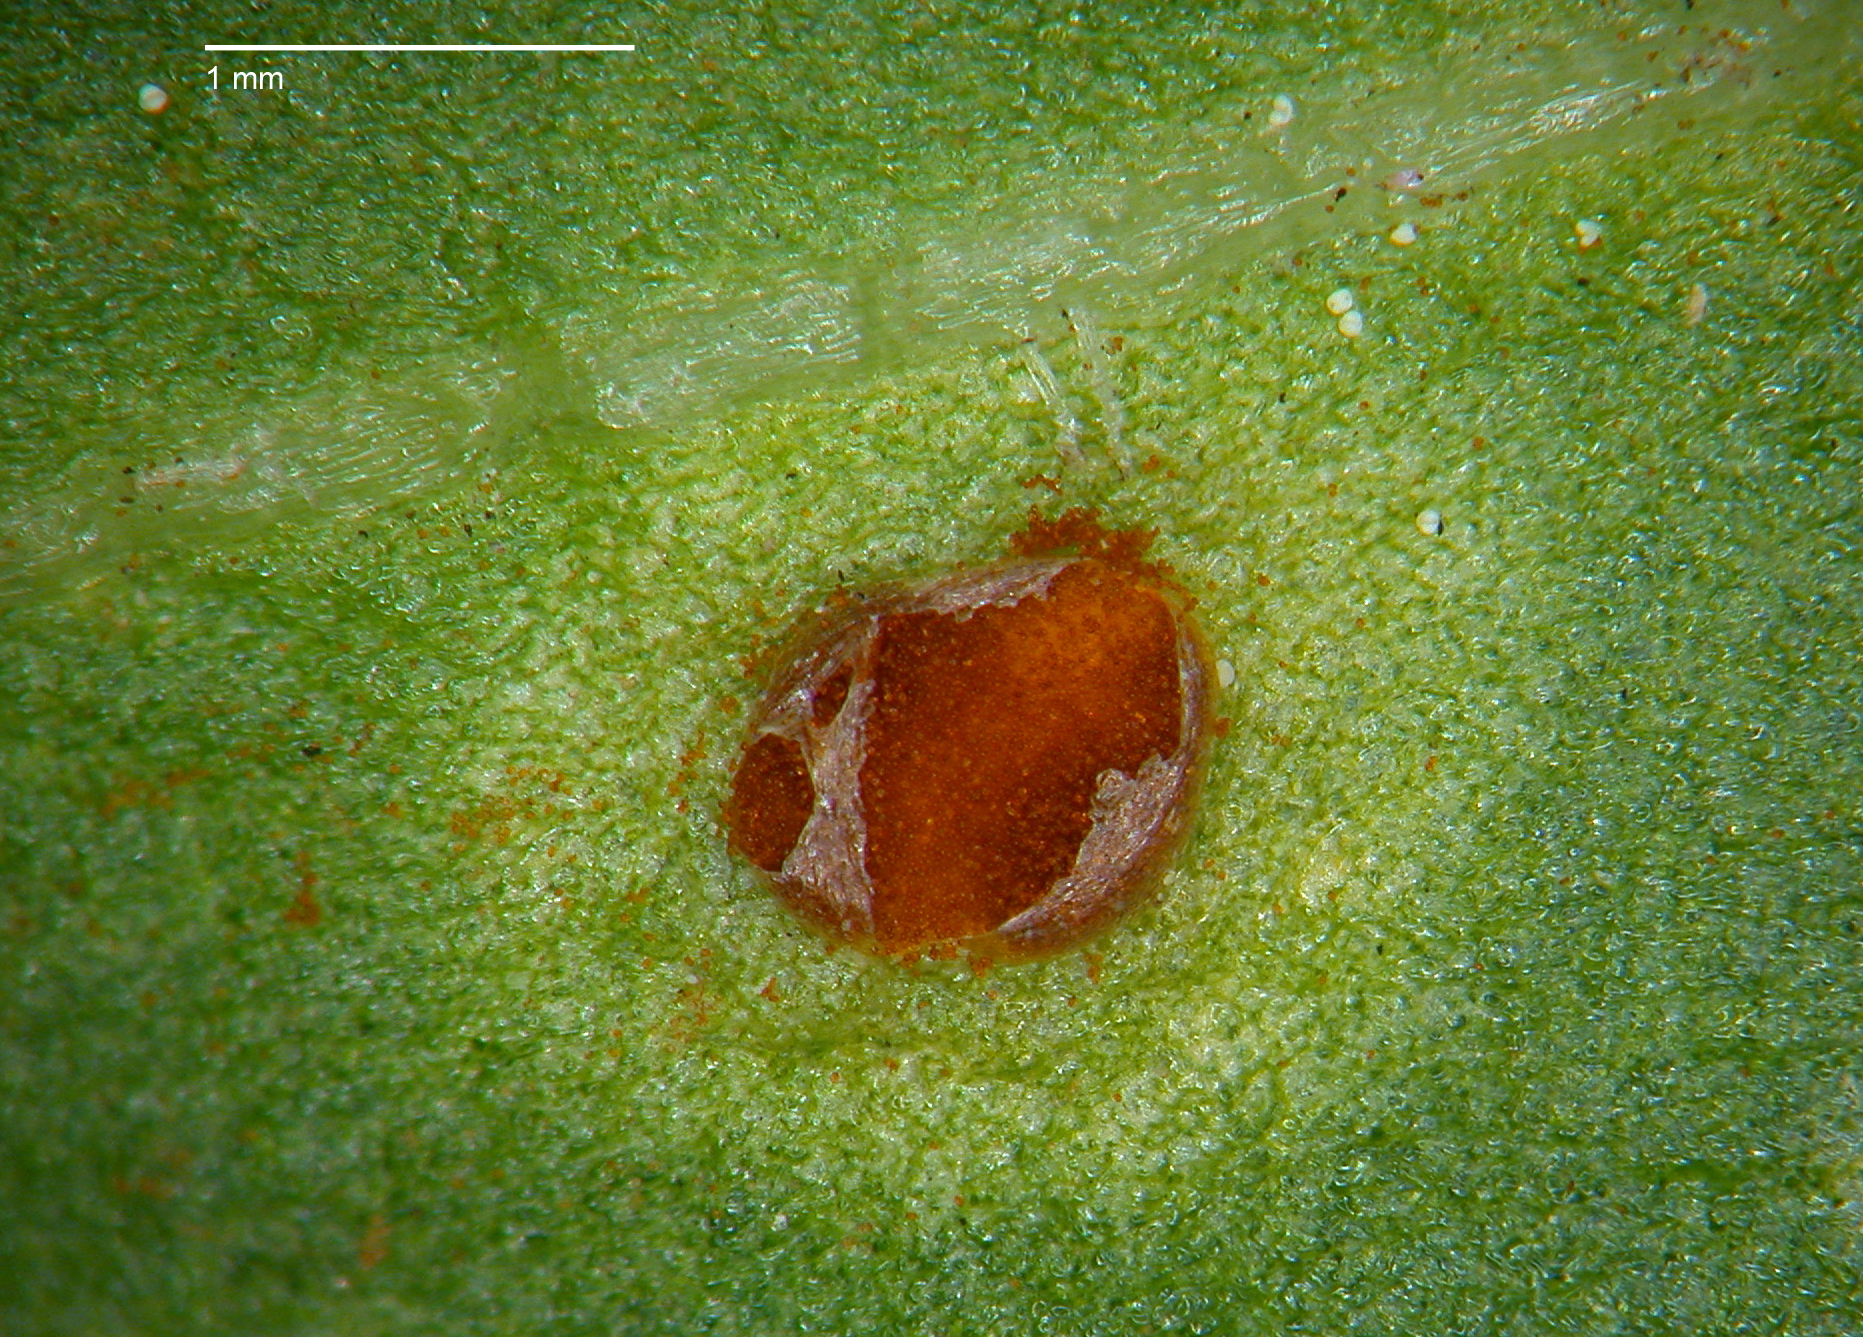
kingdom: Fungi
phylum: Basidiomycota
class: Pucciniomycetes
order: Pucciniales
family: Pucciniaceae
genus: Uromyces
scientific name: Uromyces betae
